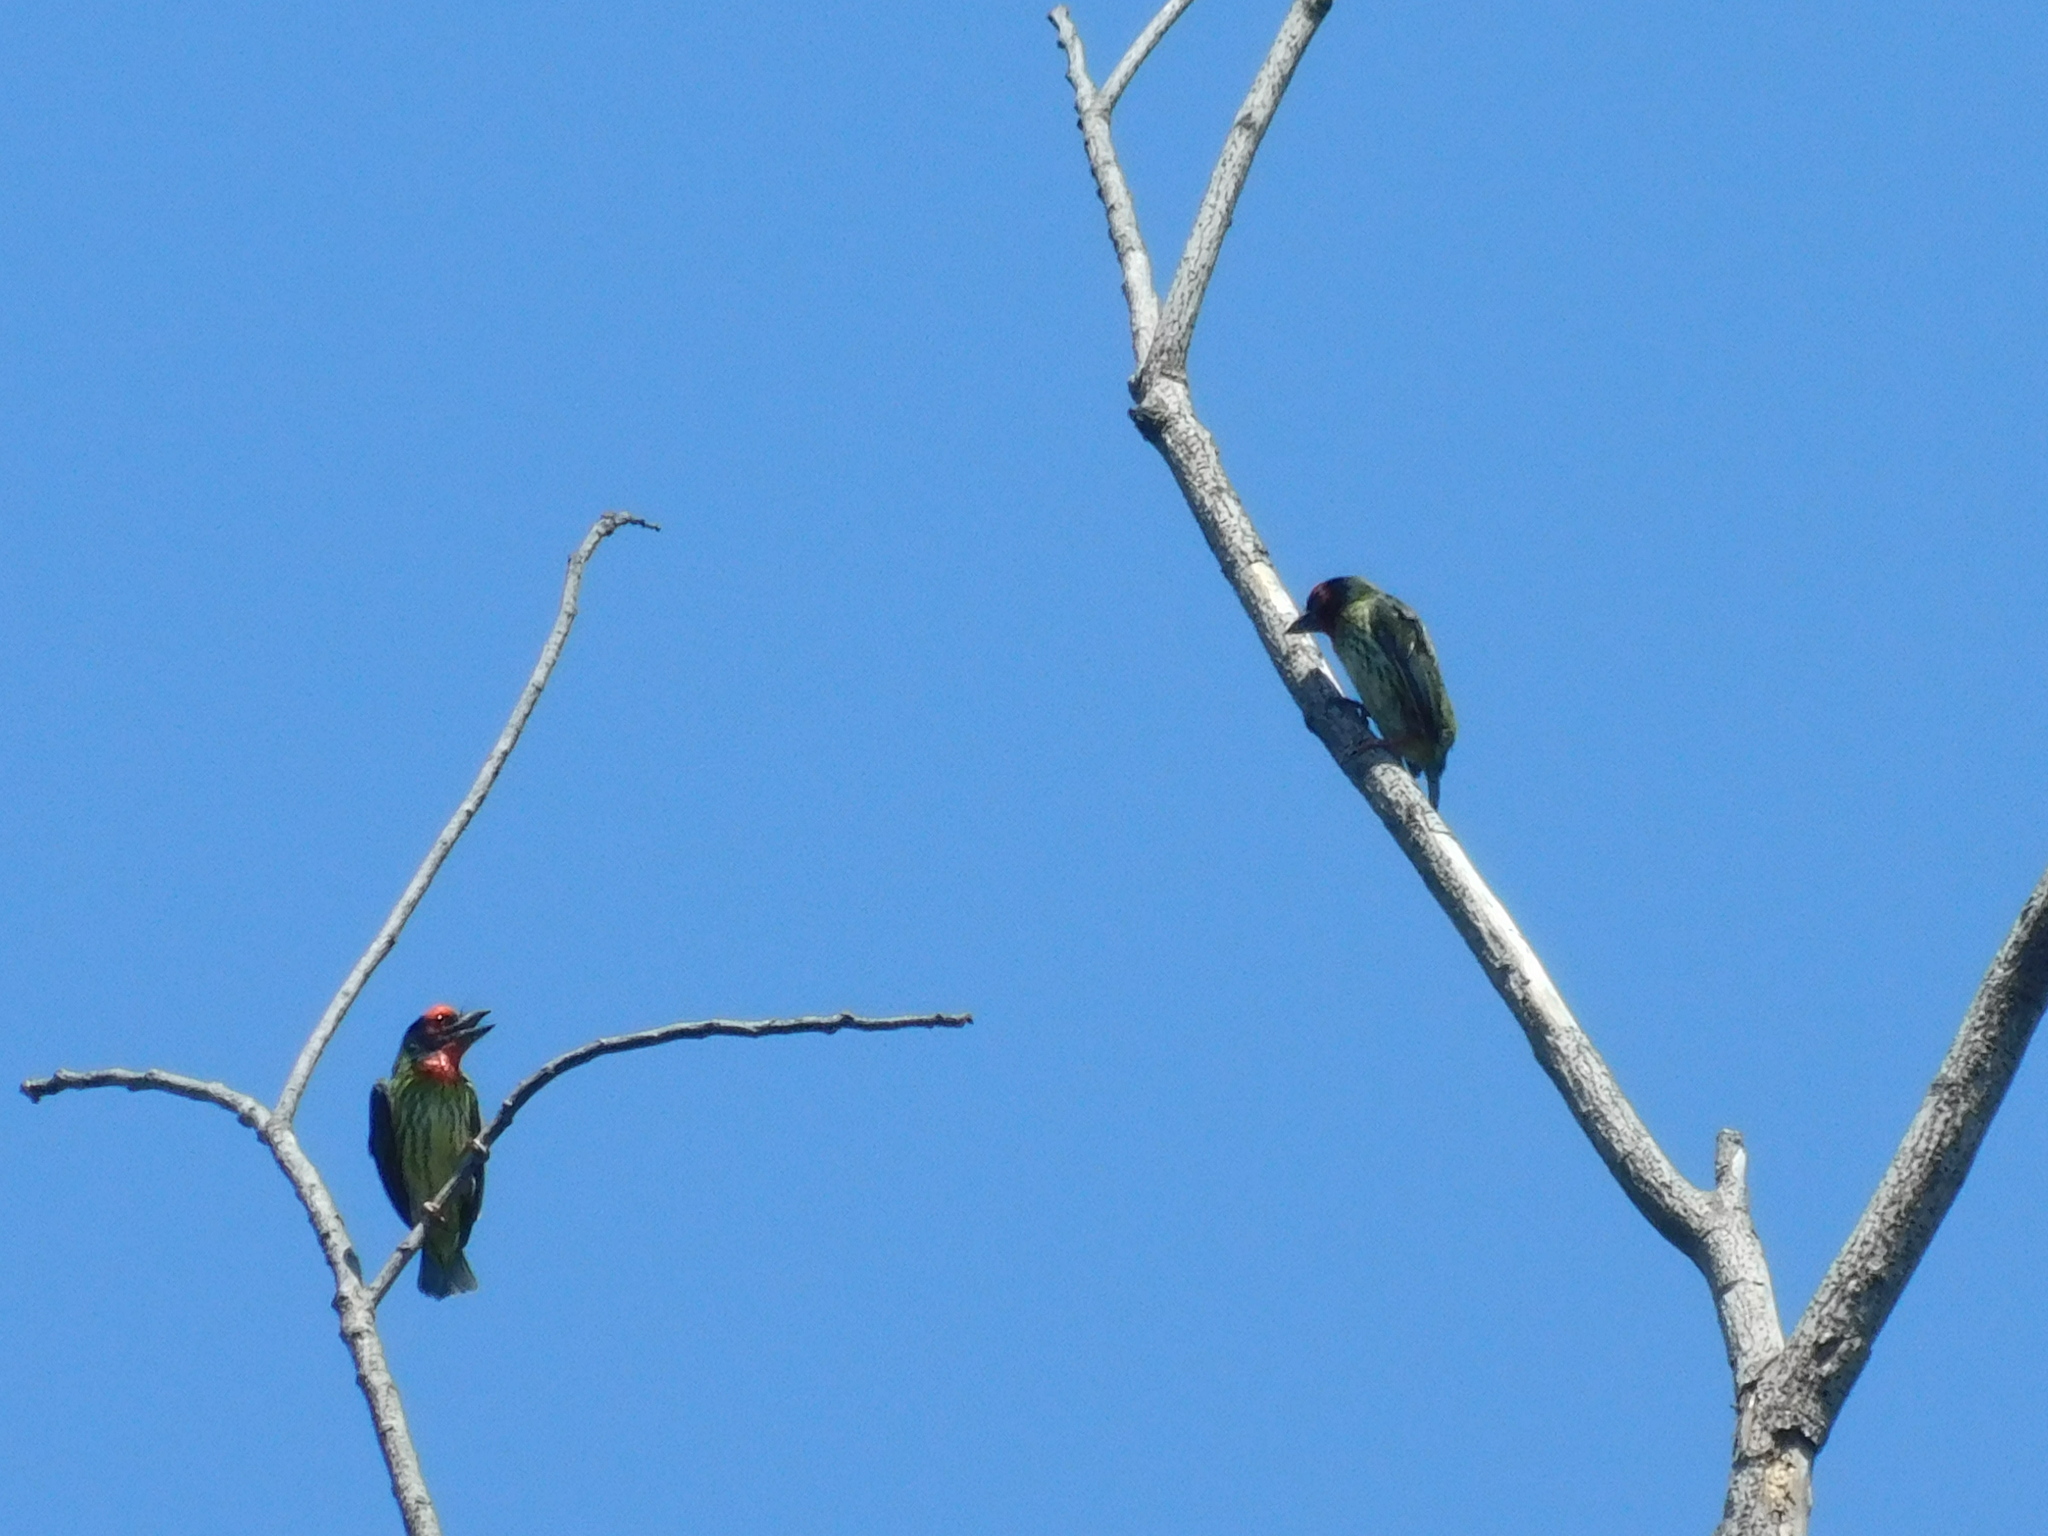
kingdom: Animalia
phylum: Chordata
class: Aves
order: Piciformes
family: Megalaimidae
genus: Psilopogon
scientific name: Psilopogon haemacephalus
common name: Coppersmith barbet
